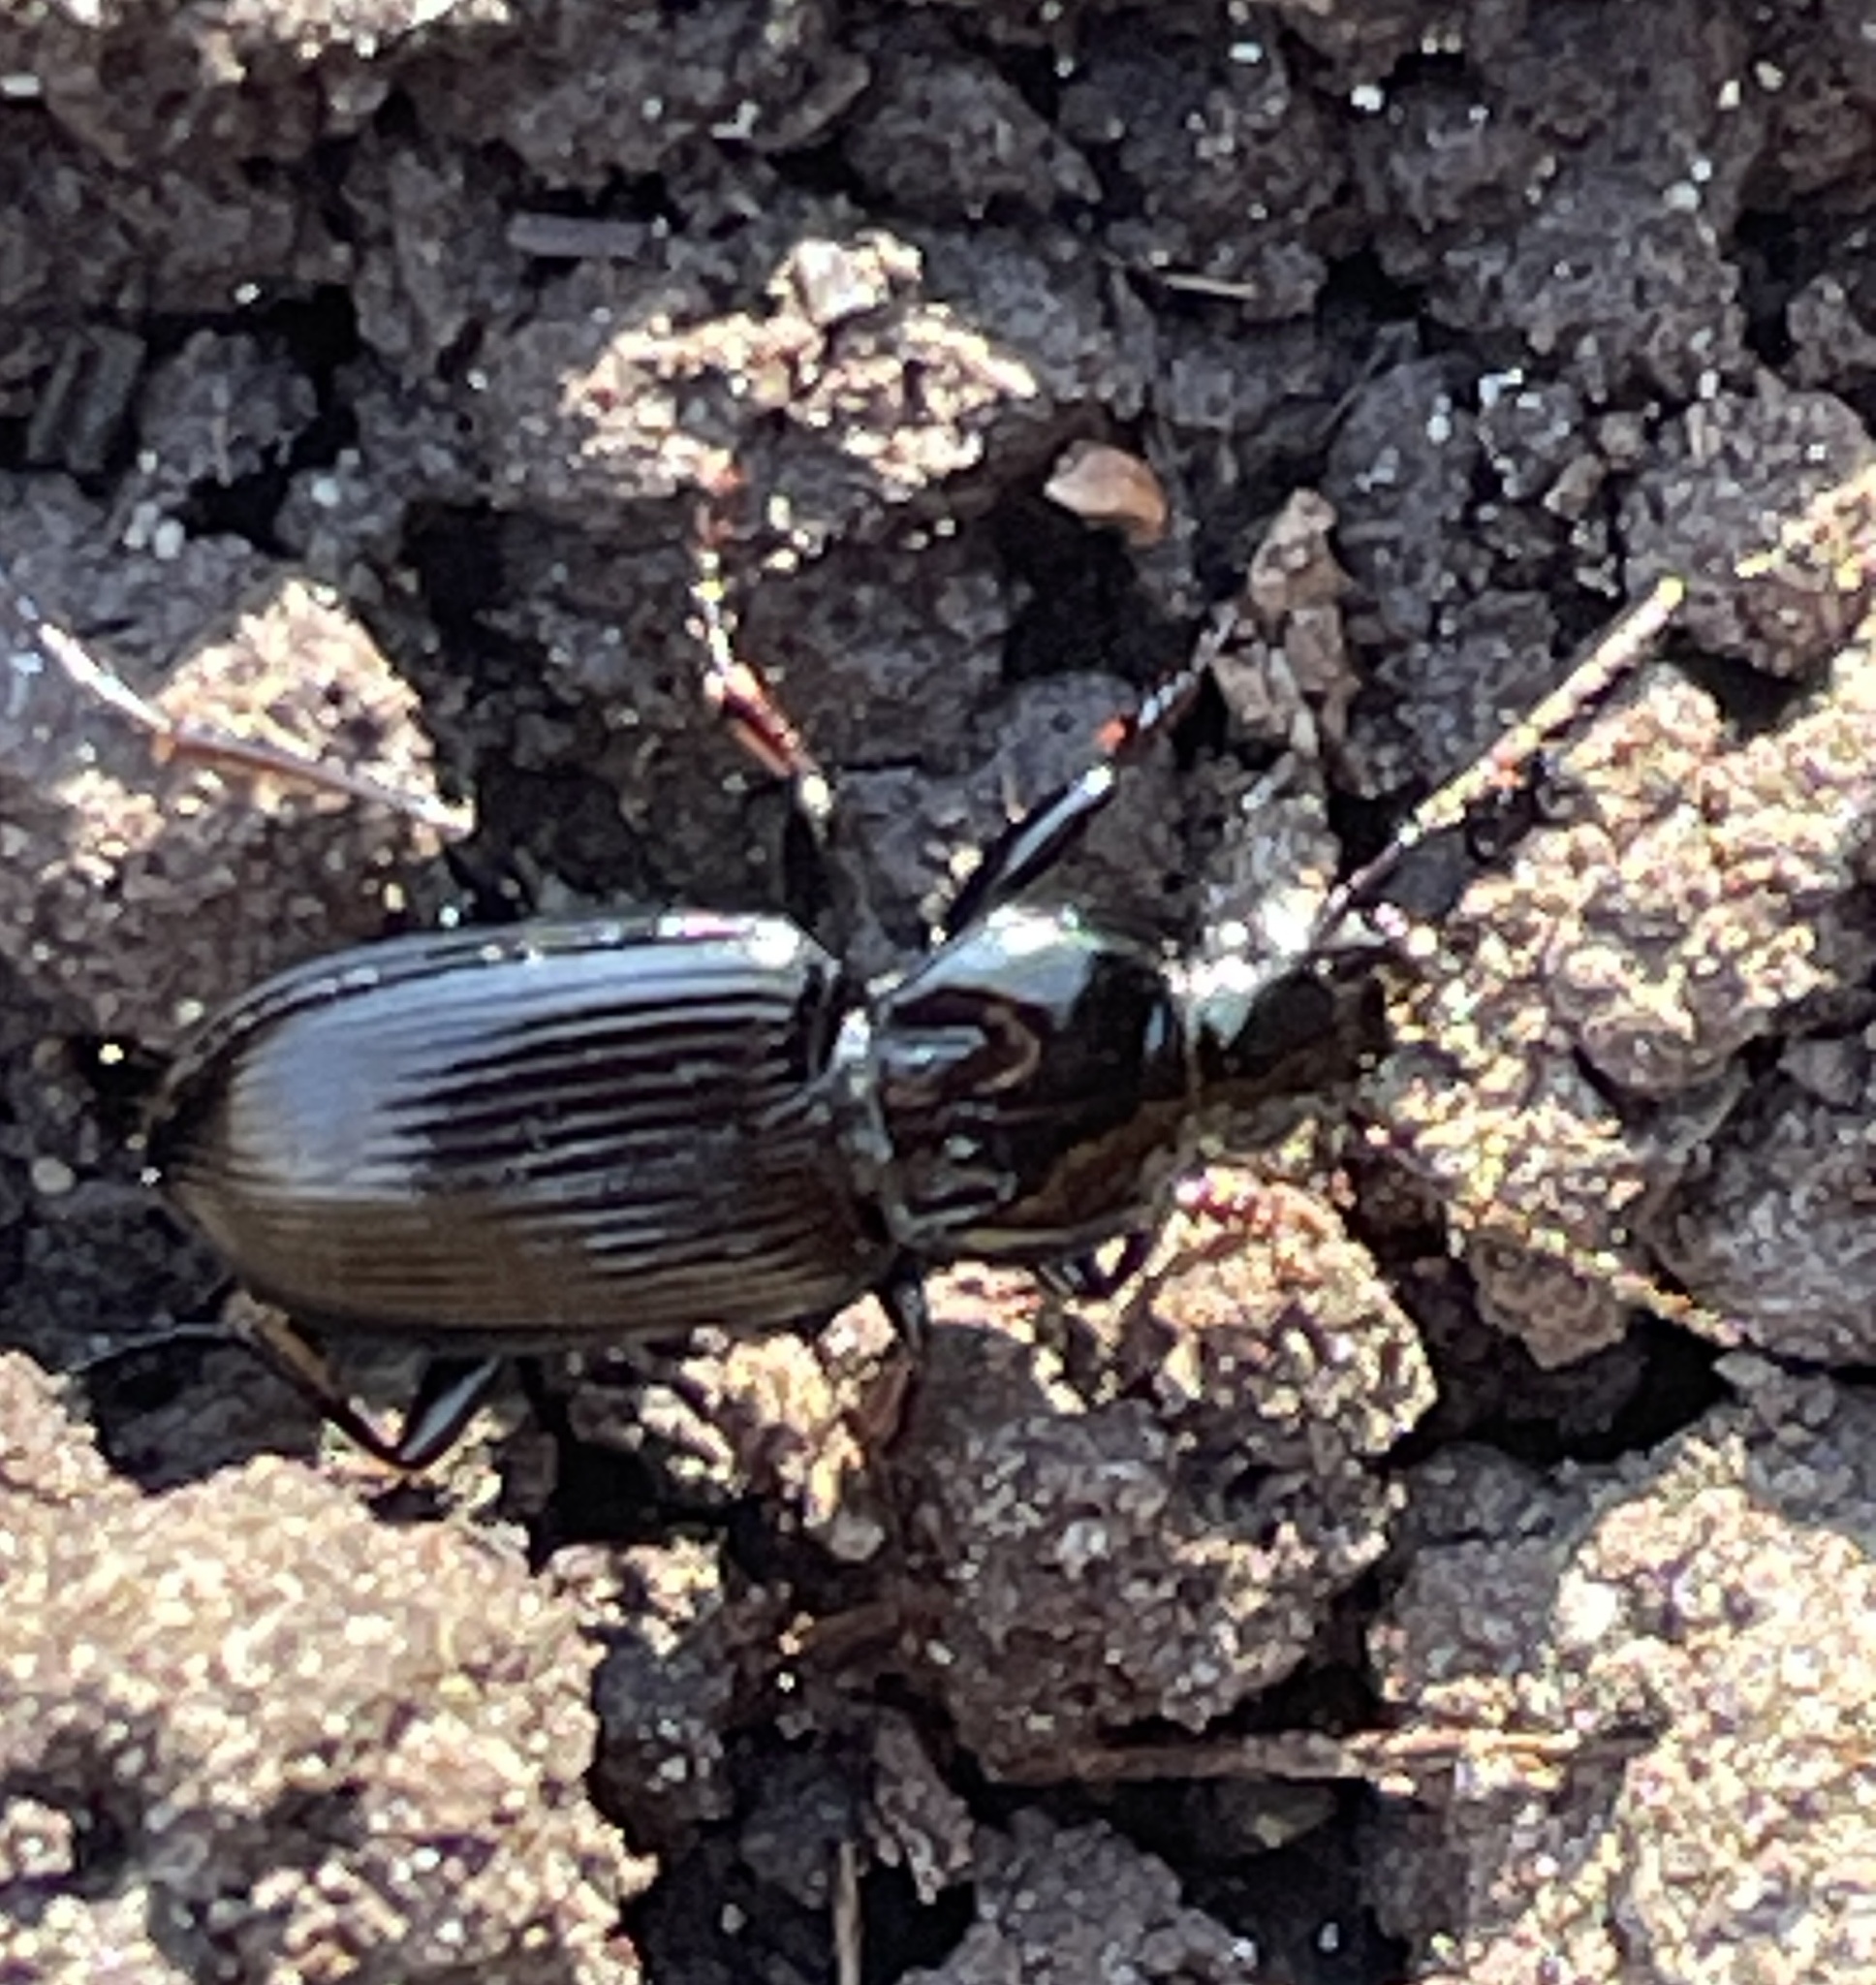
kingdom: Animalia
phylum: Arthropoda
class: Insecta
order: Coleoptera
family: Carabidae
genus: Pterostichus
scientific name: Pterostichus mutus
